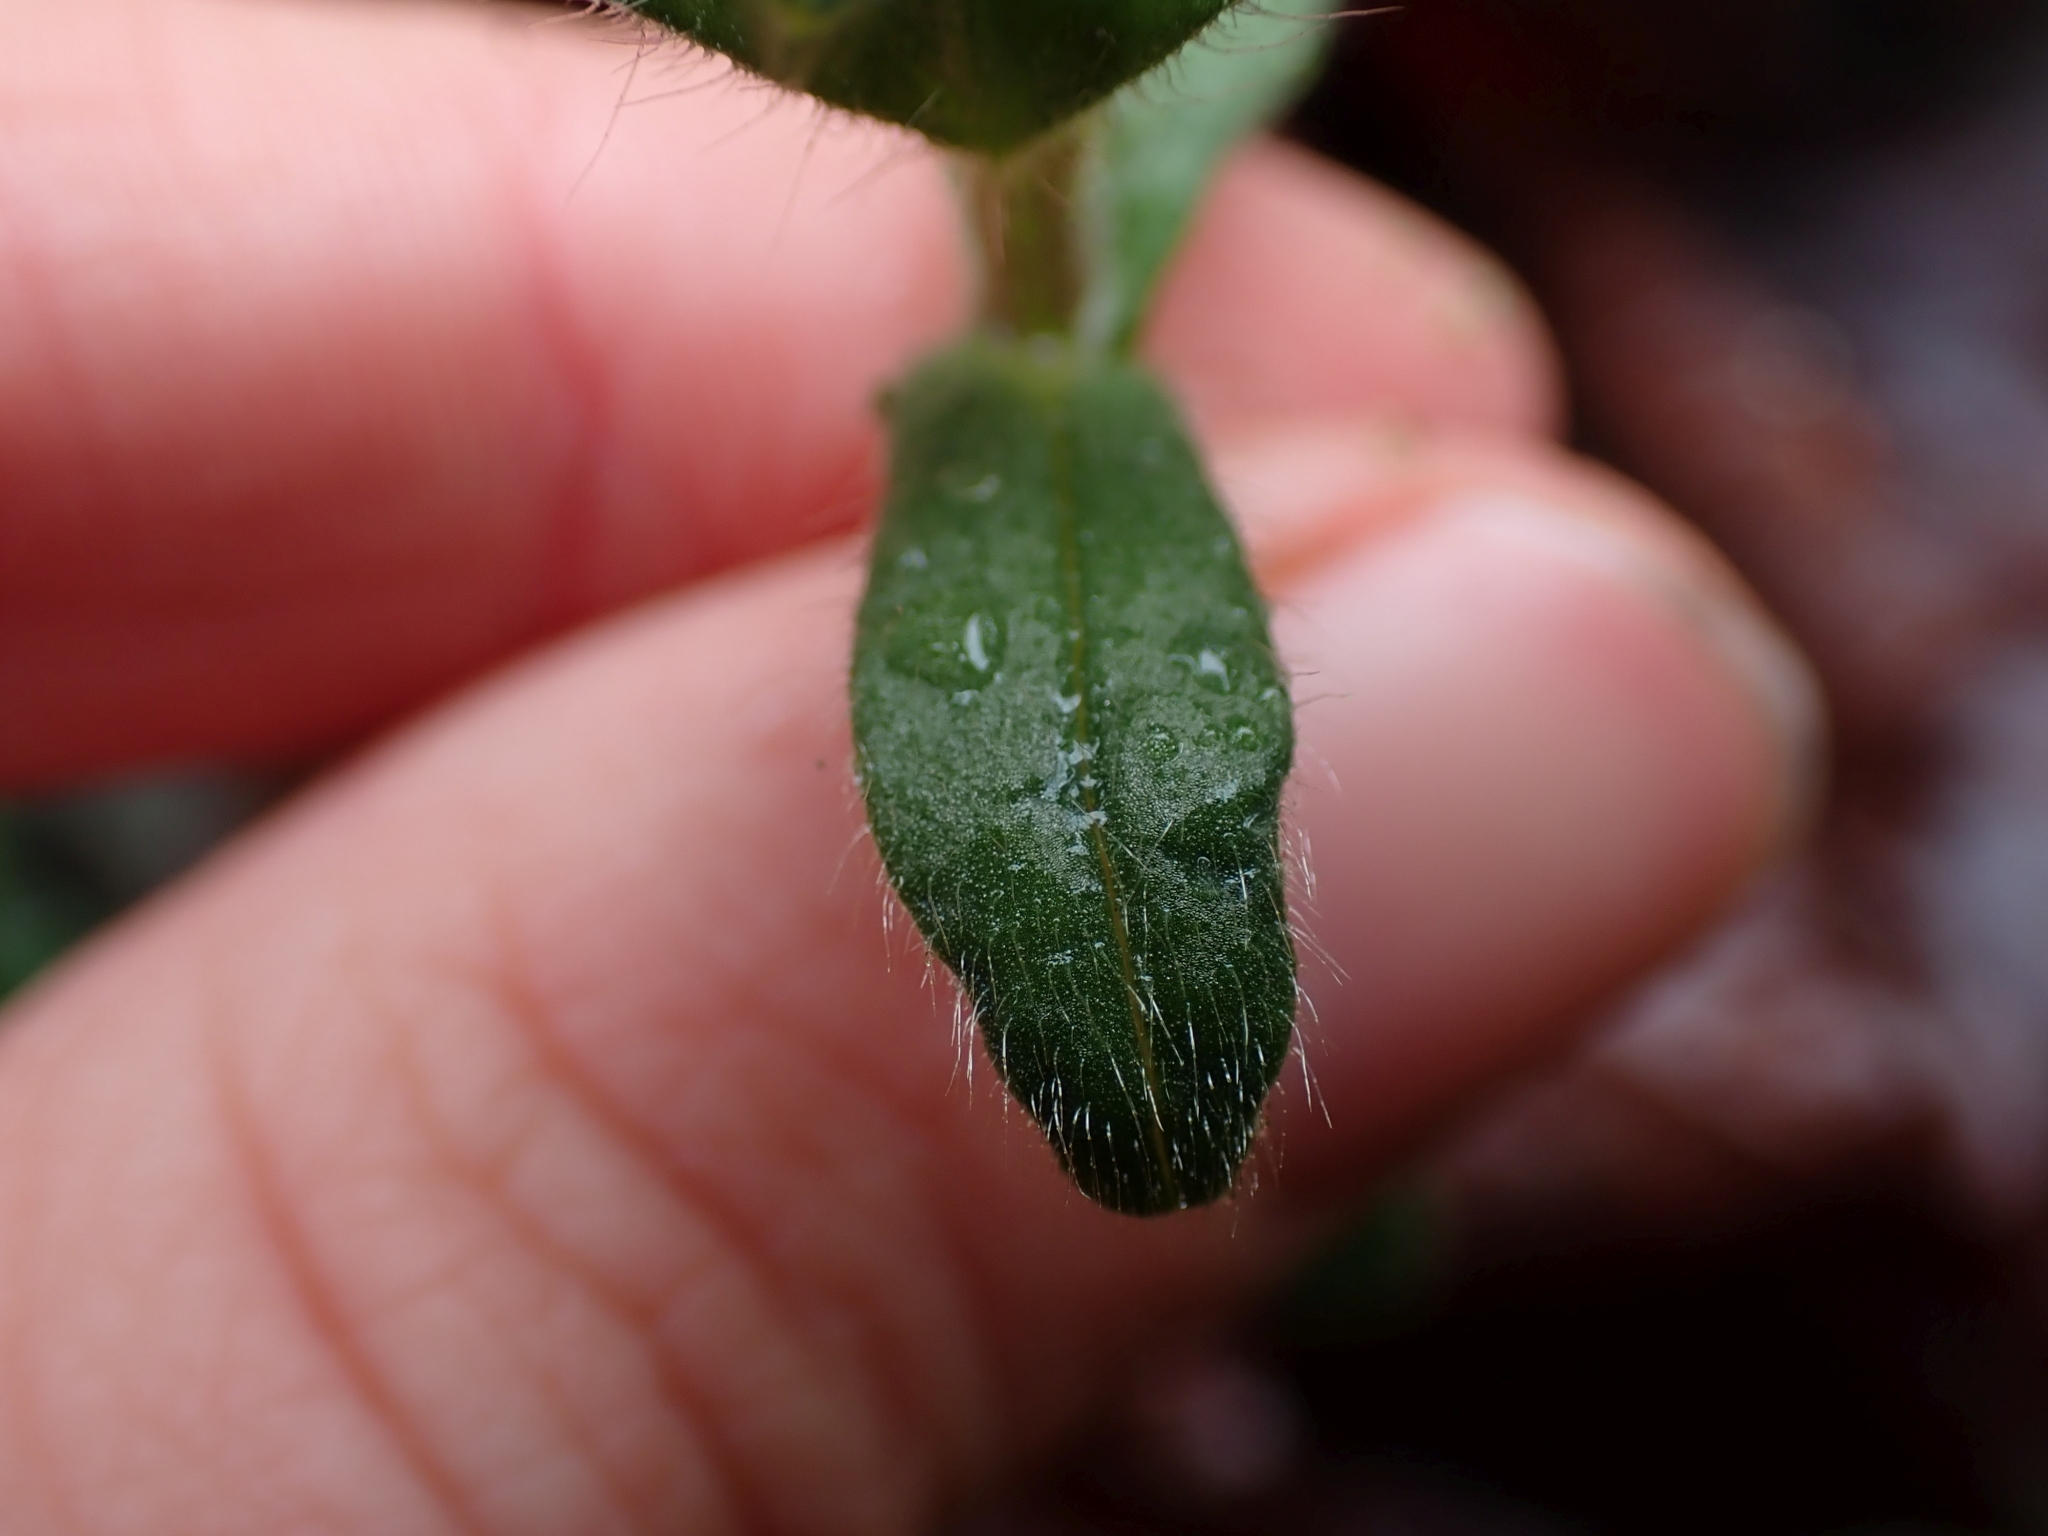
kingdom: Plantae
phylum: Tracheophyta
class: Magnoliopsida
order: Caryophyllales
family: Caryophyllaceae
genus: Cerastium
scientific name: Cerastium fontanum
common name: Common mouse-ear
